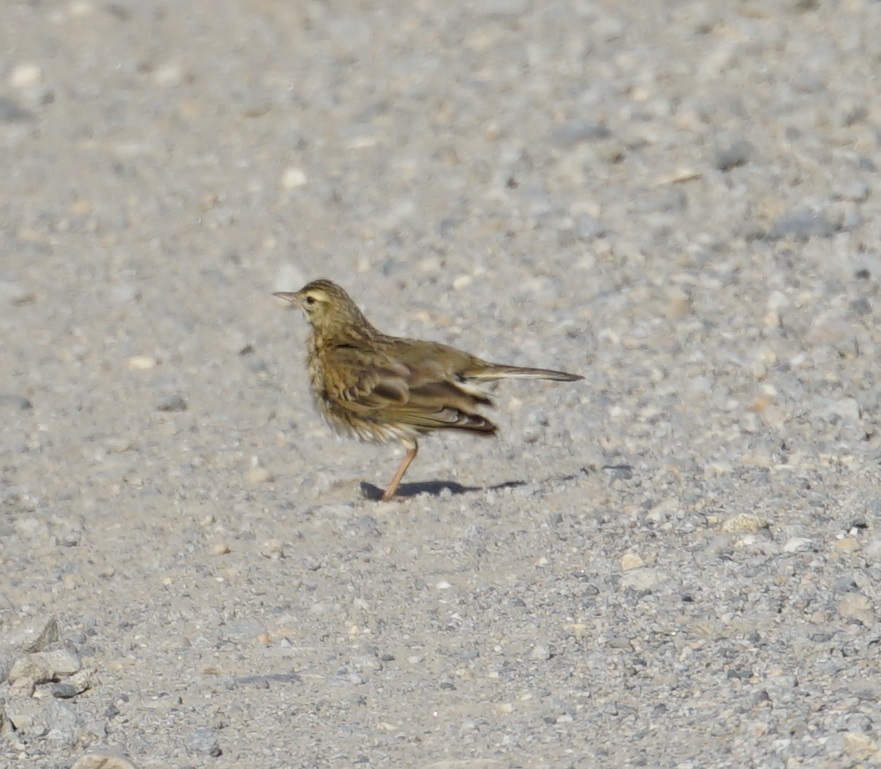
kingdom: Animalia
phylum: Chordata
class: Aves
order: Passeriformes
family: Motacillidae
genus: Anthus
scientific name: Anthus australis
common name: Australian pipit
